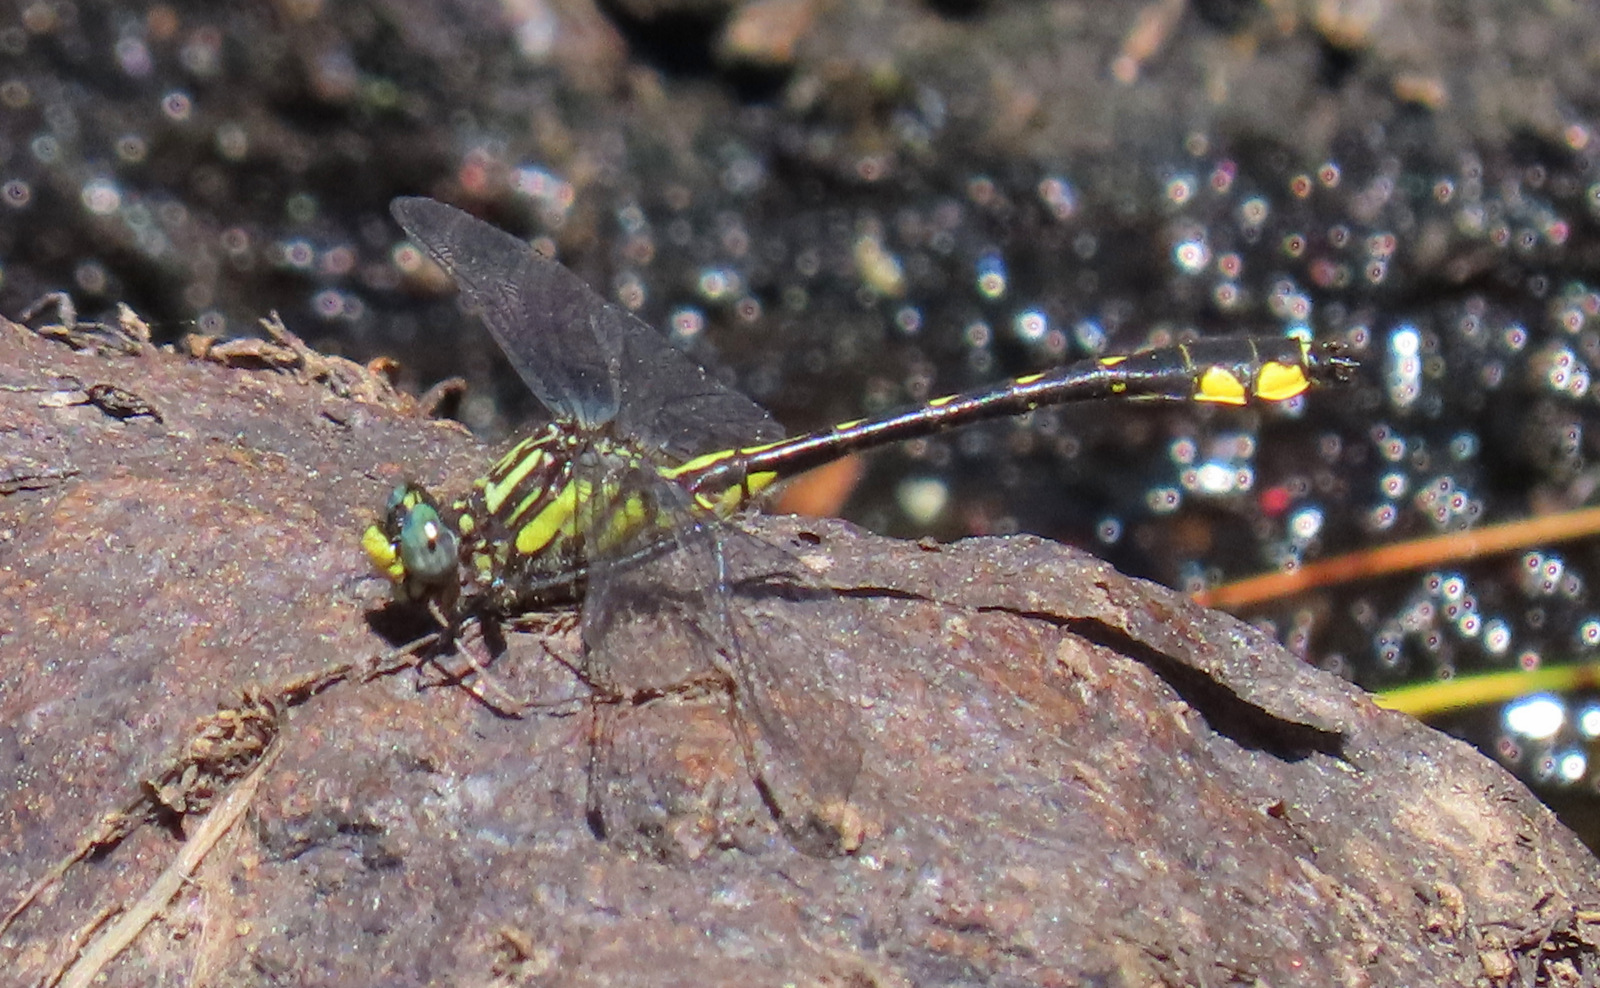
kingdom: Animalia
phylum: Arthropoda
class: Insecta
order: Odonata
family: Gomphidae
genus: Hylogomphus
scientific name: Hylogomphus abbreviatus
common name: Spine-crowned clubtail
